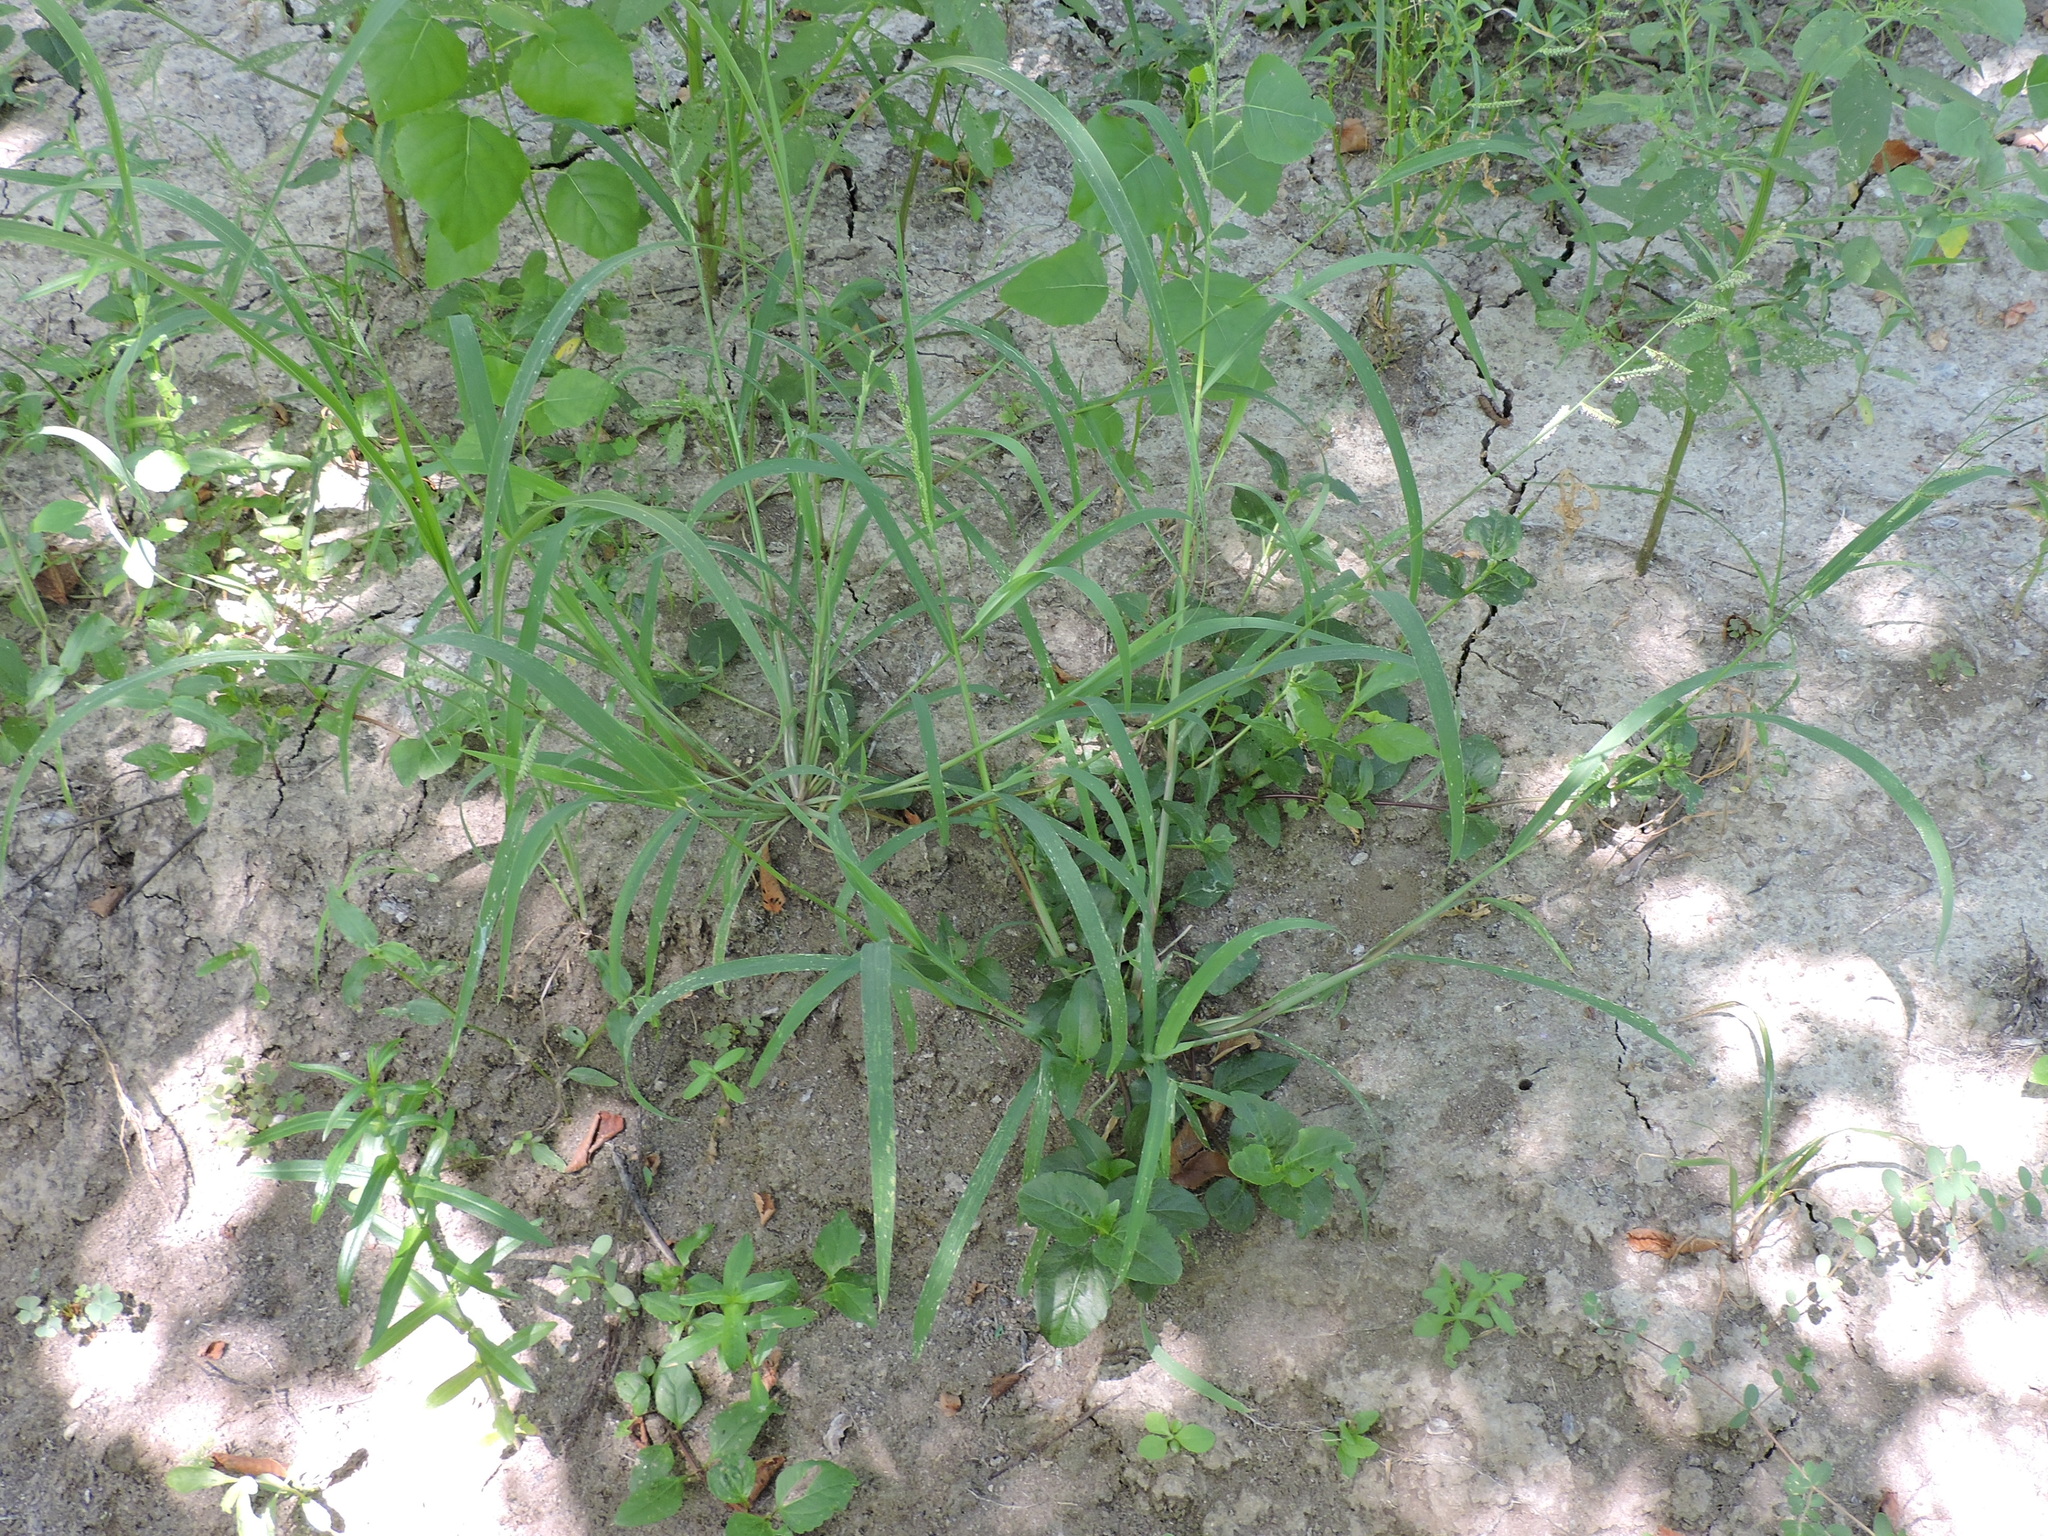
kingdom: Plantae
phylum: Tracheophyta
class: Liliopsida
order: Poales
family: Poaceae
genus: Echinochloa
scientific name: Echinochloa colonum
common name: Jungle rice
